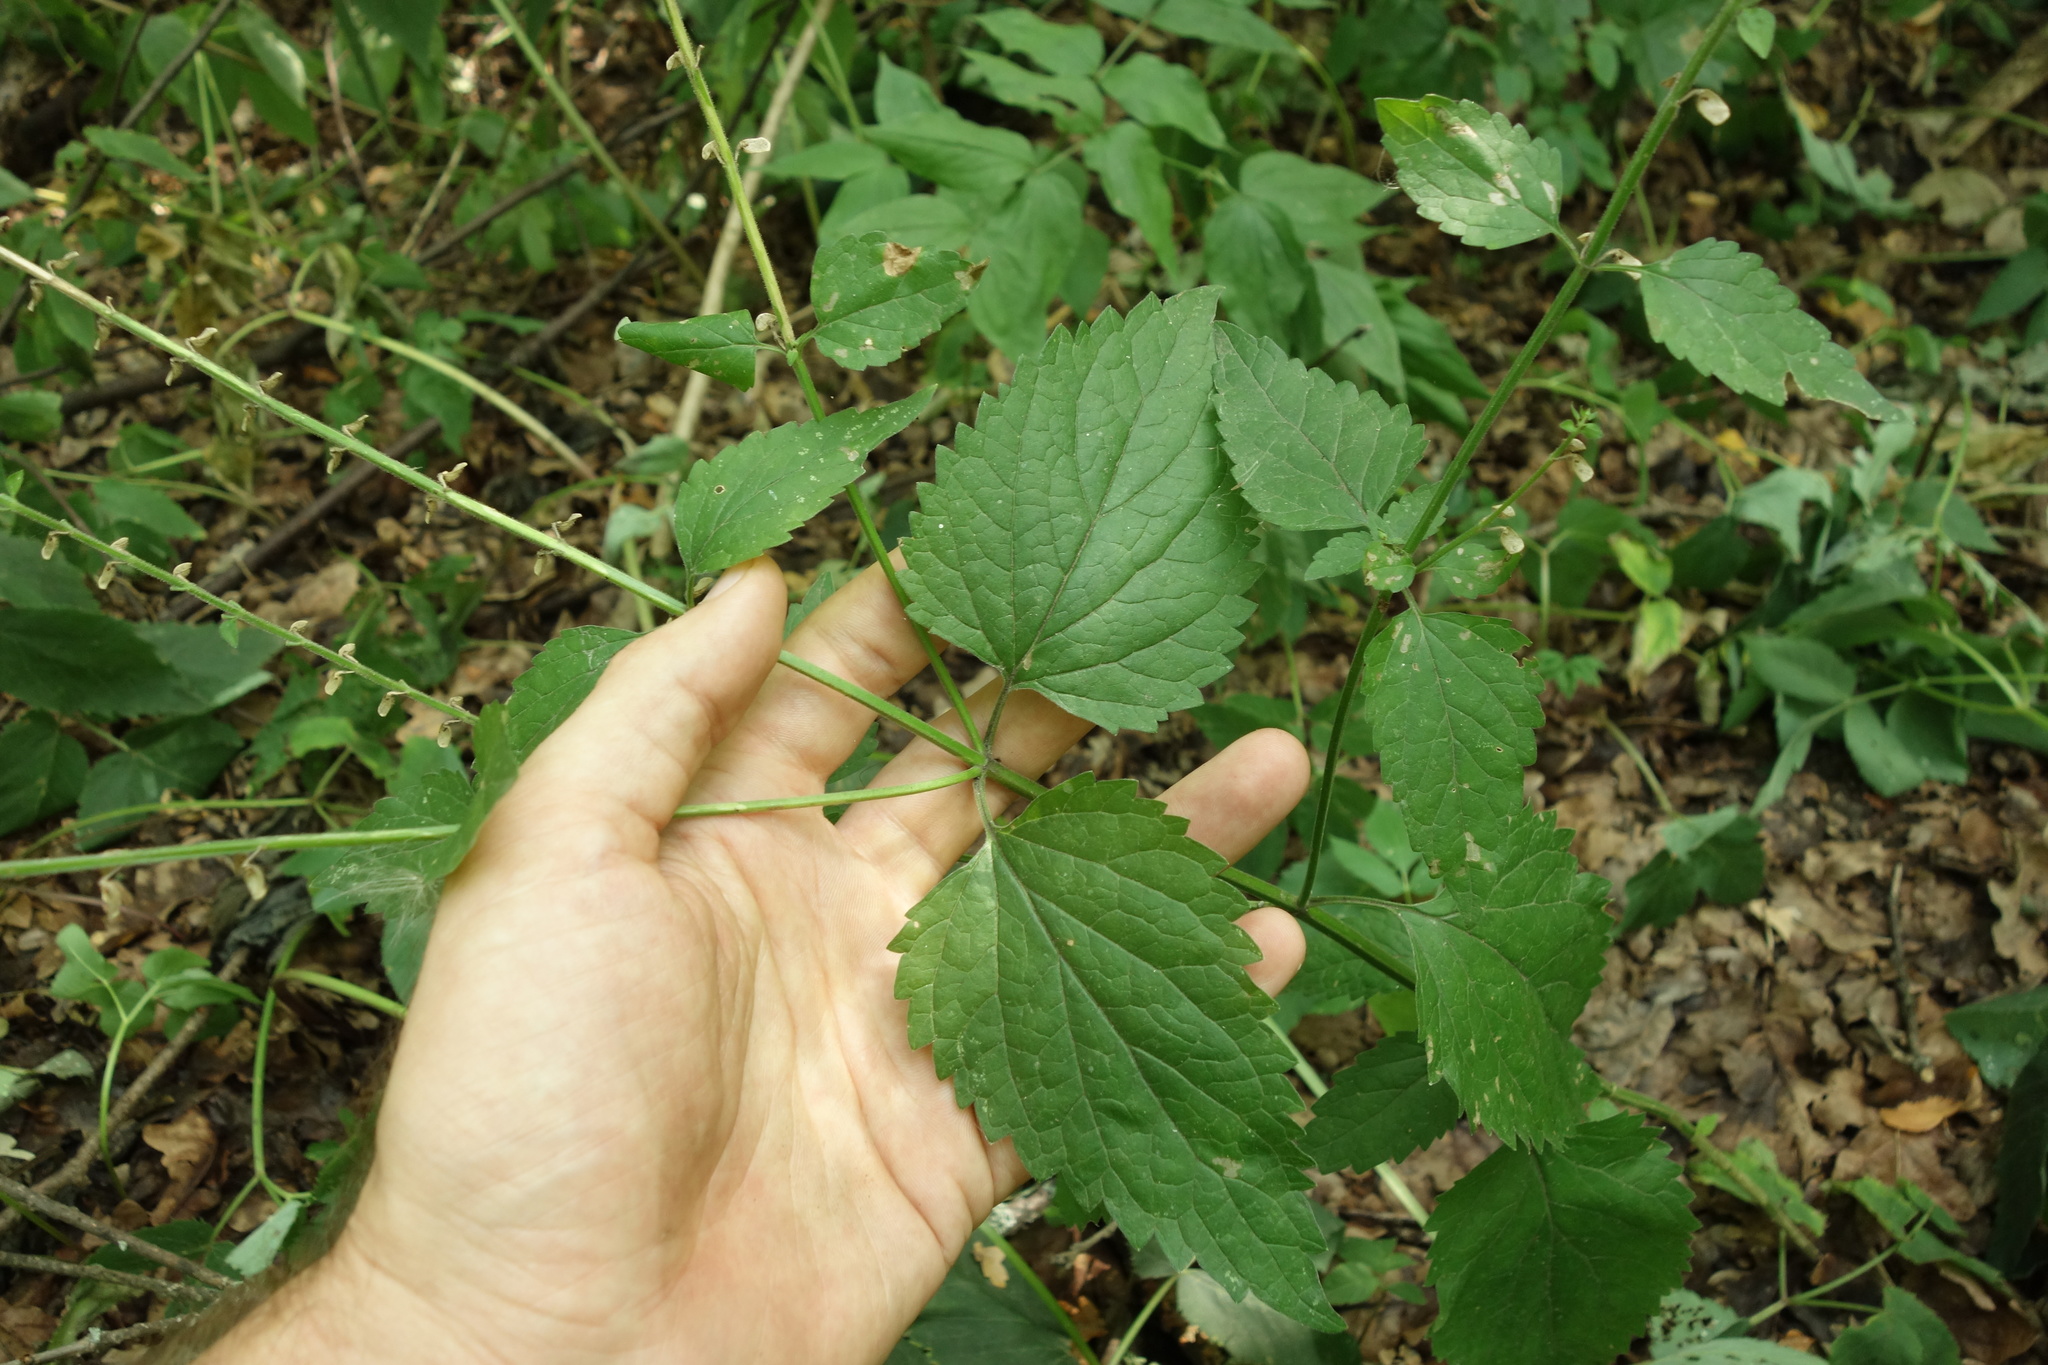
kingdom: Plantae
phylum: Tracheophyta
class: Magnoliopsida
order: Lamiales
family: Lamiaceae
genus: Scutellaria
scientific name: Scutellaria altissima
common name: Somerset skullcap
